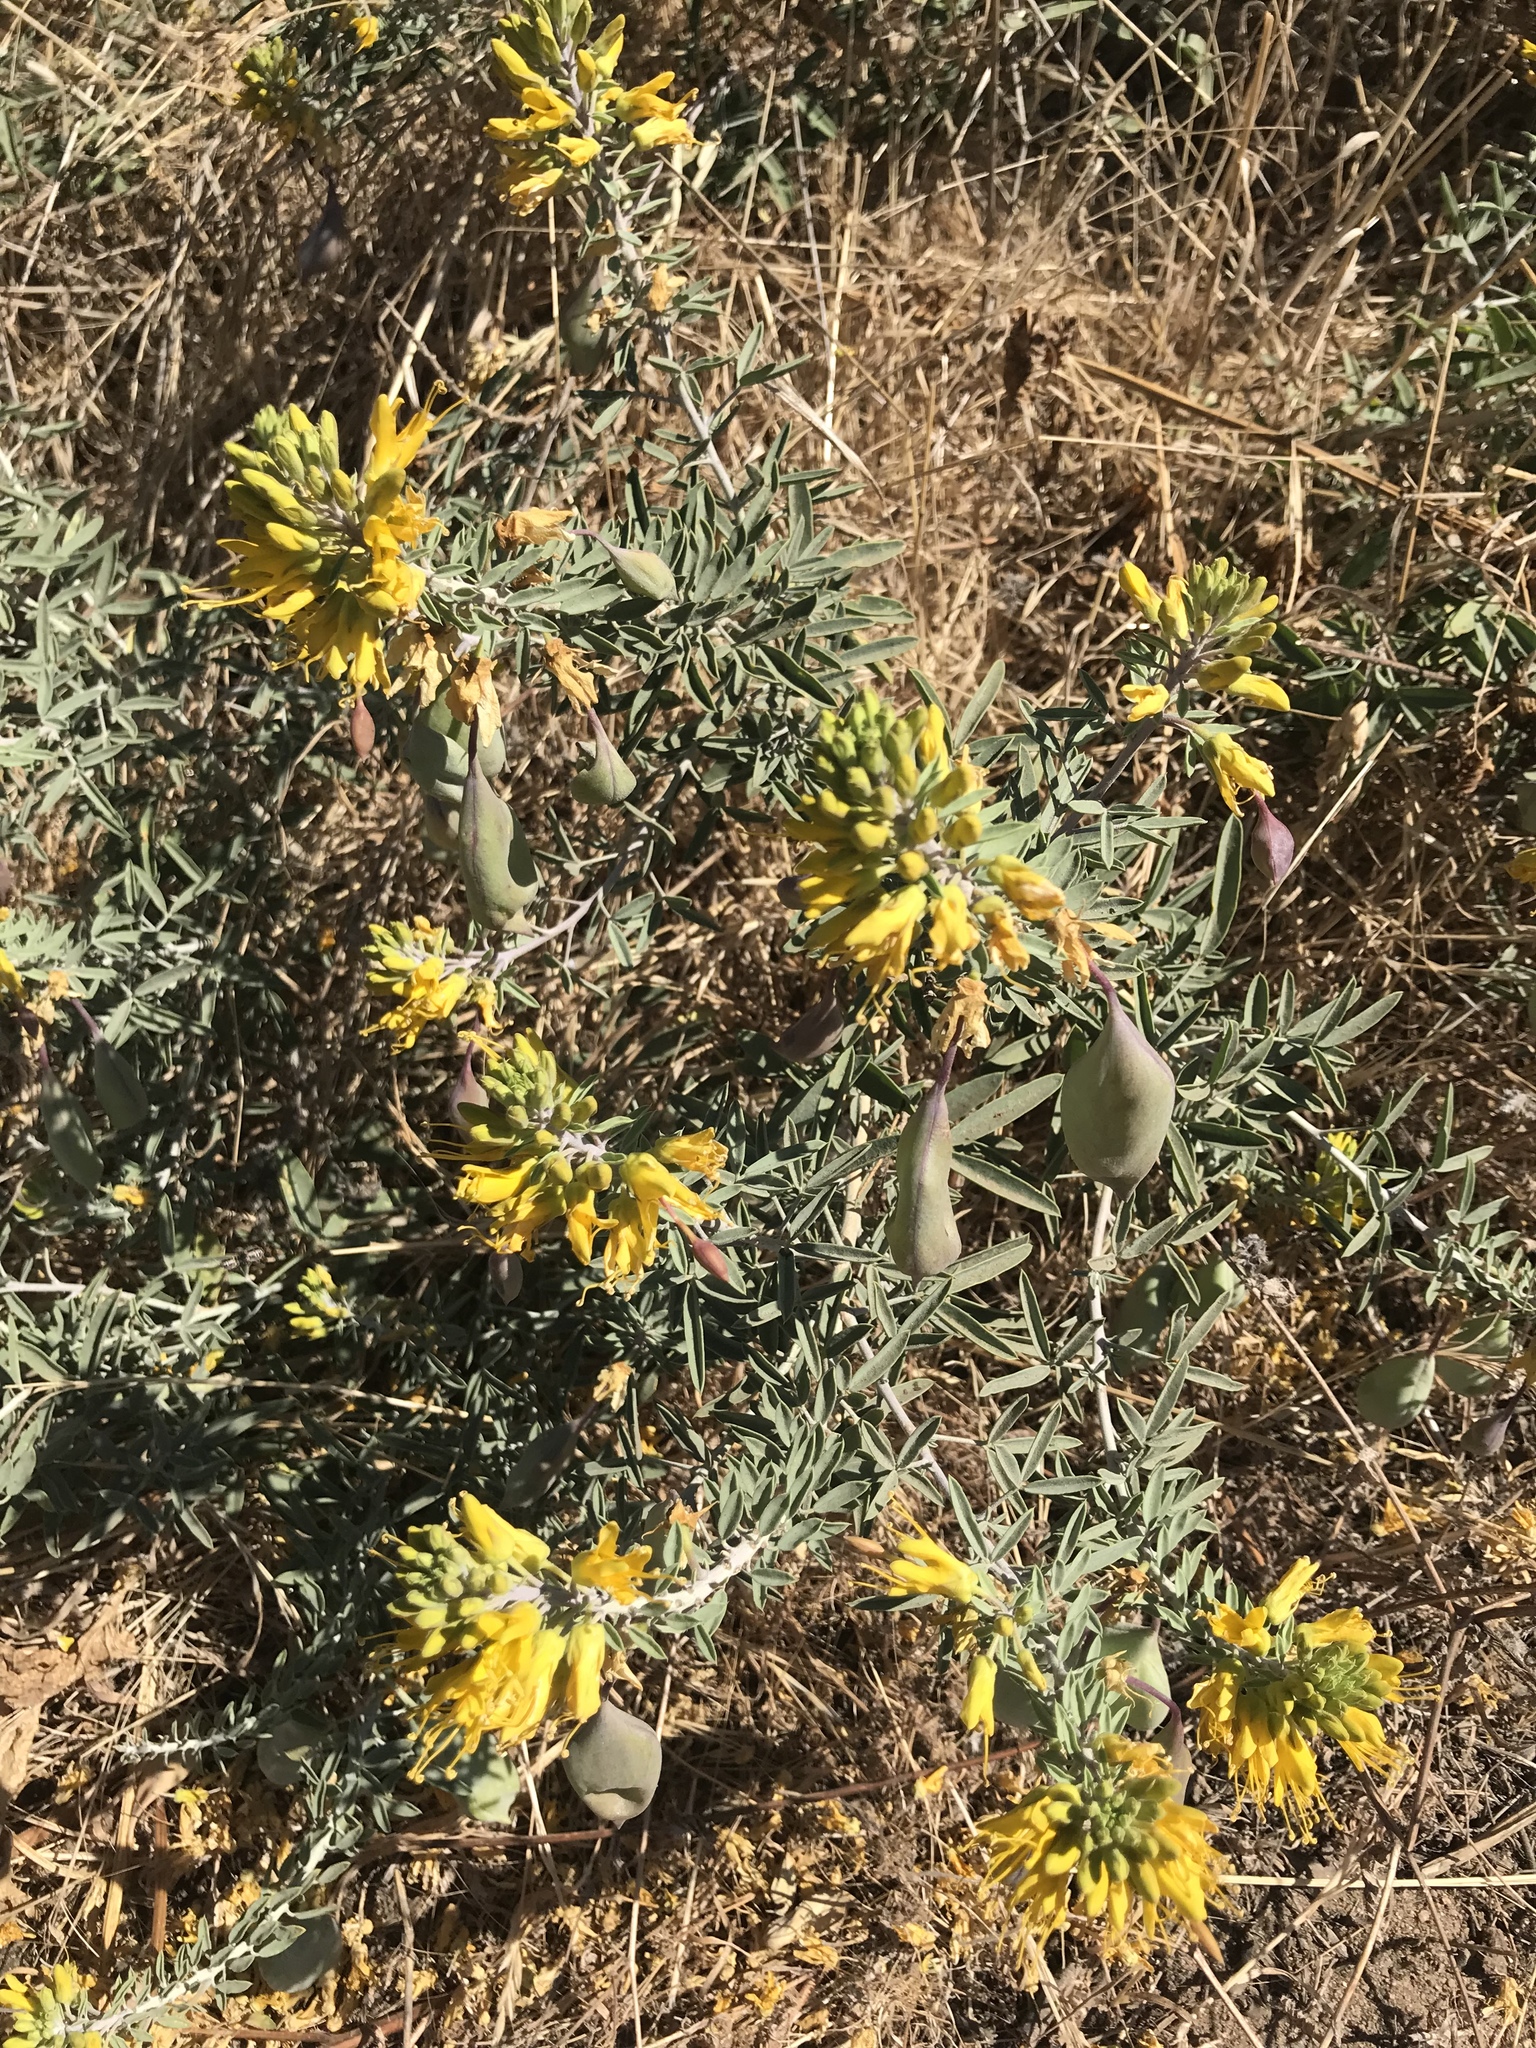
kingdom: Plantae
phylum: Tracheophyta
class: Magnoliopsida
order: Brassicales
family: Cleomaceae
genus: Cleomella
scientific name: Cleomella arborea
